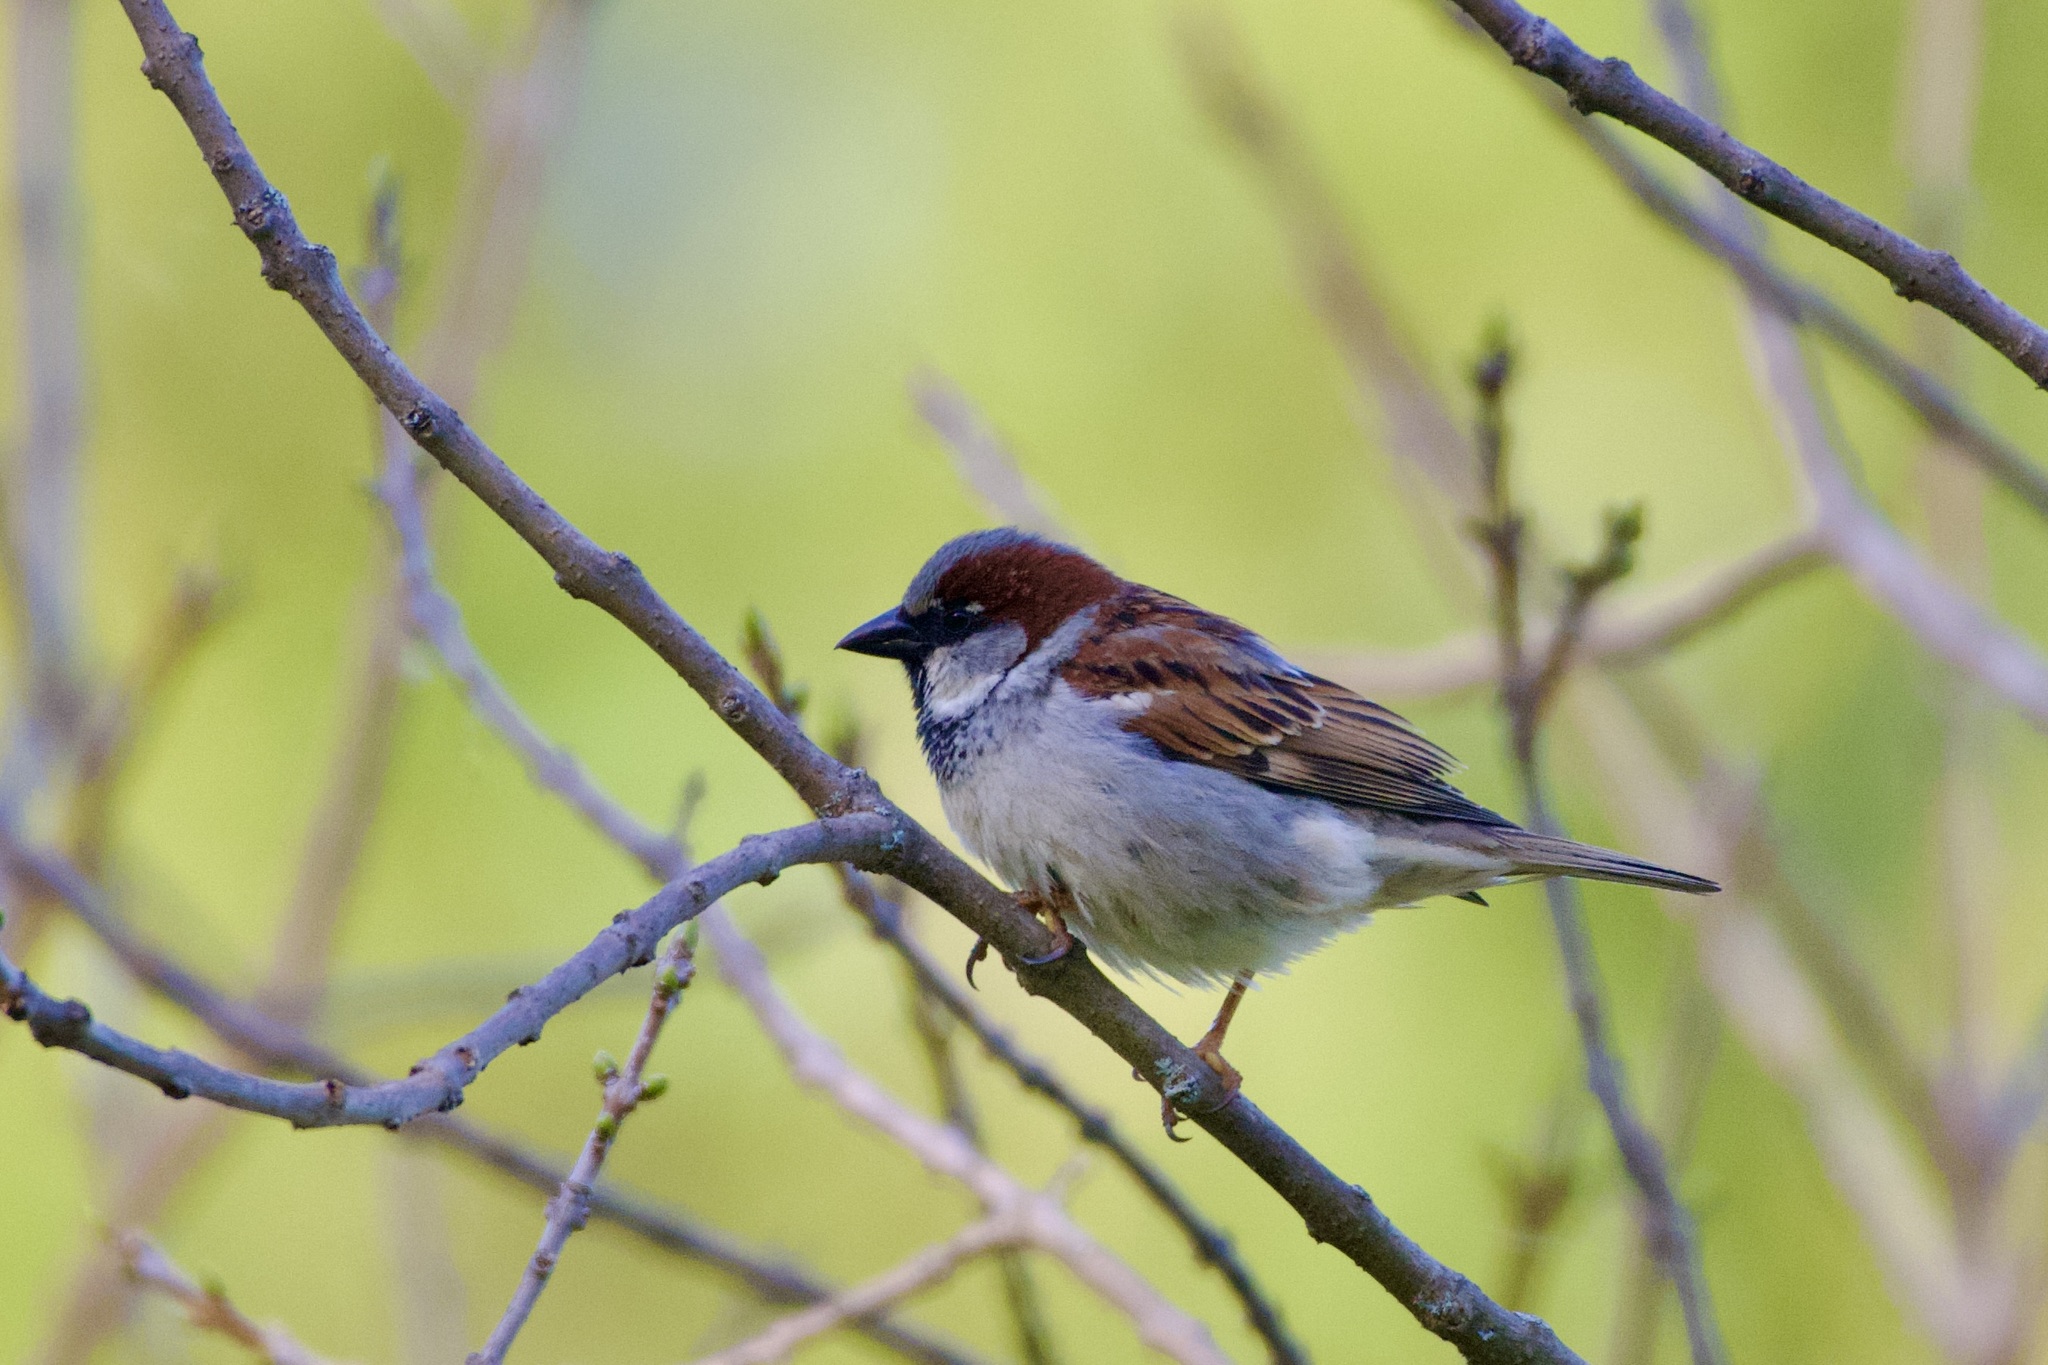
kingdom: Animalia
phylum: Chordata
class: Aves
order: Passeriformes
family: Passeridae
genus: Passer
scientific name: Passer domesticus
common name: House sparrow
